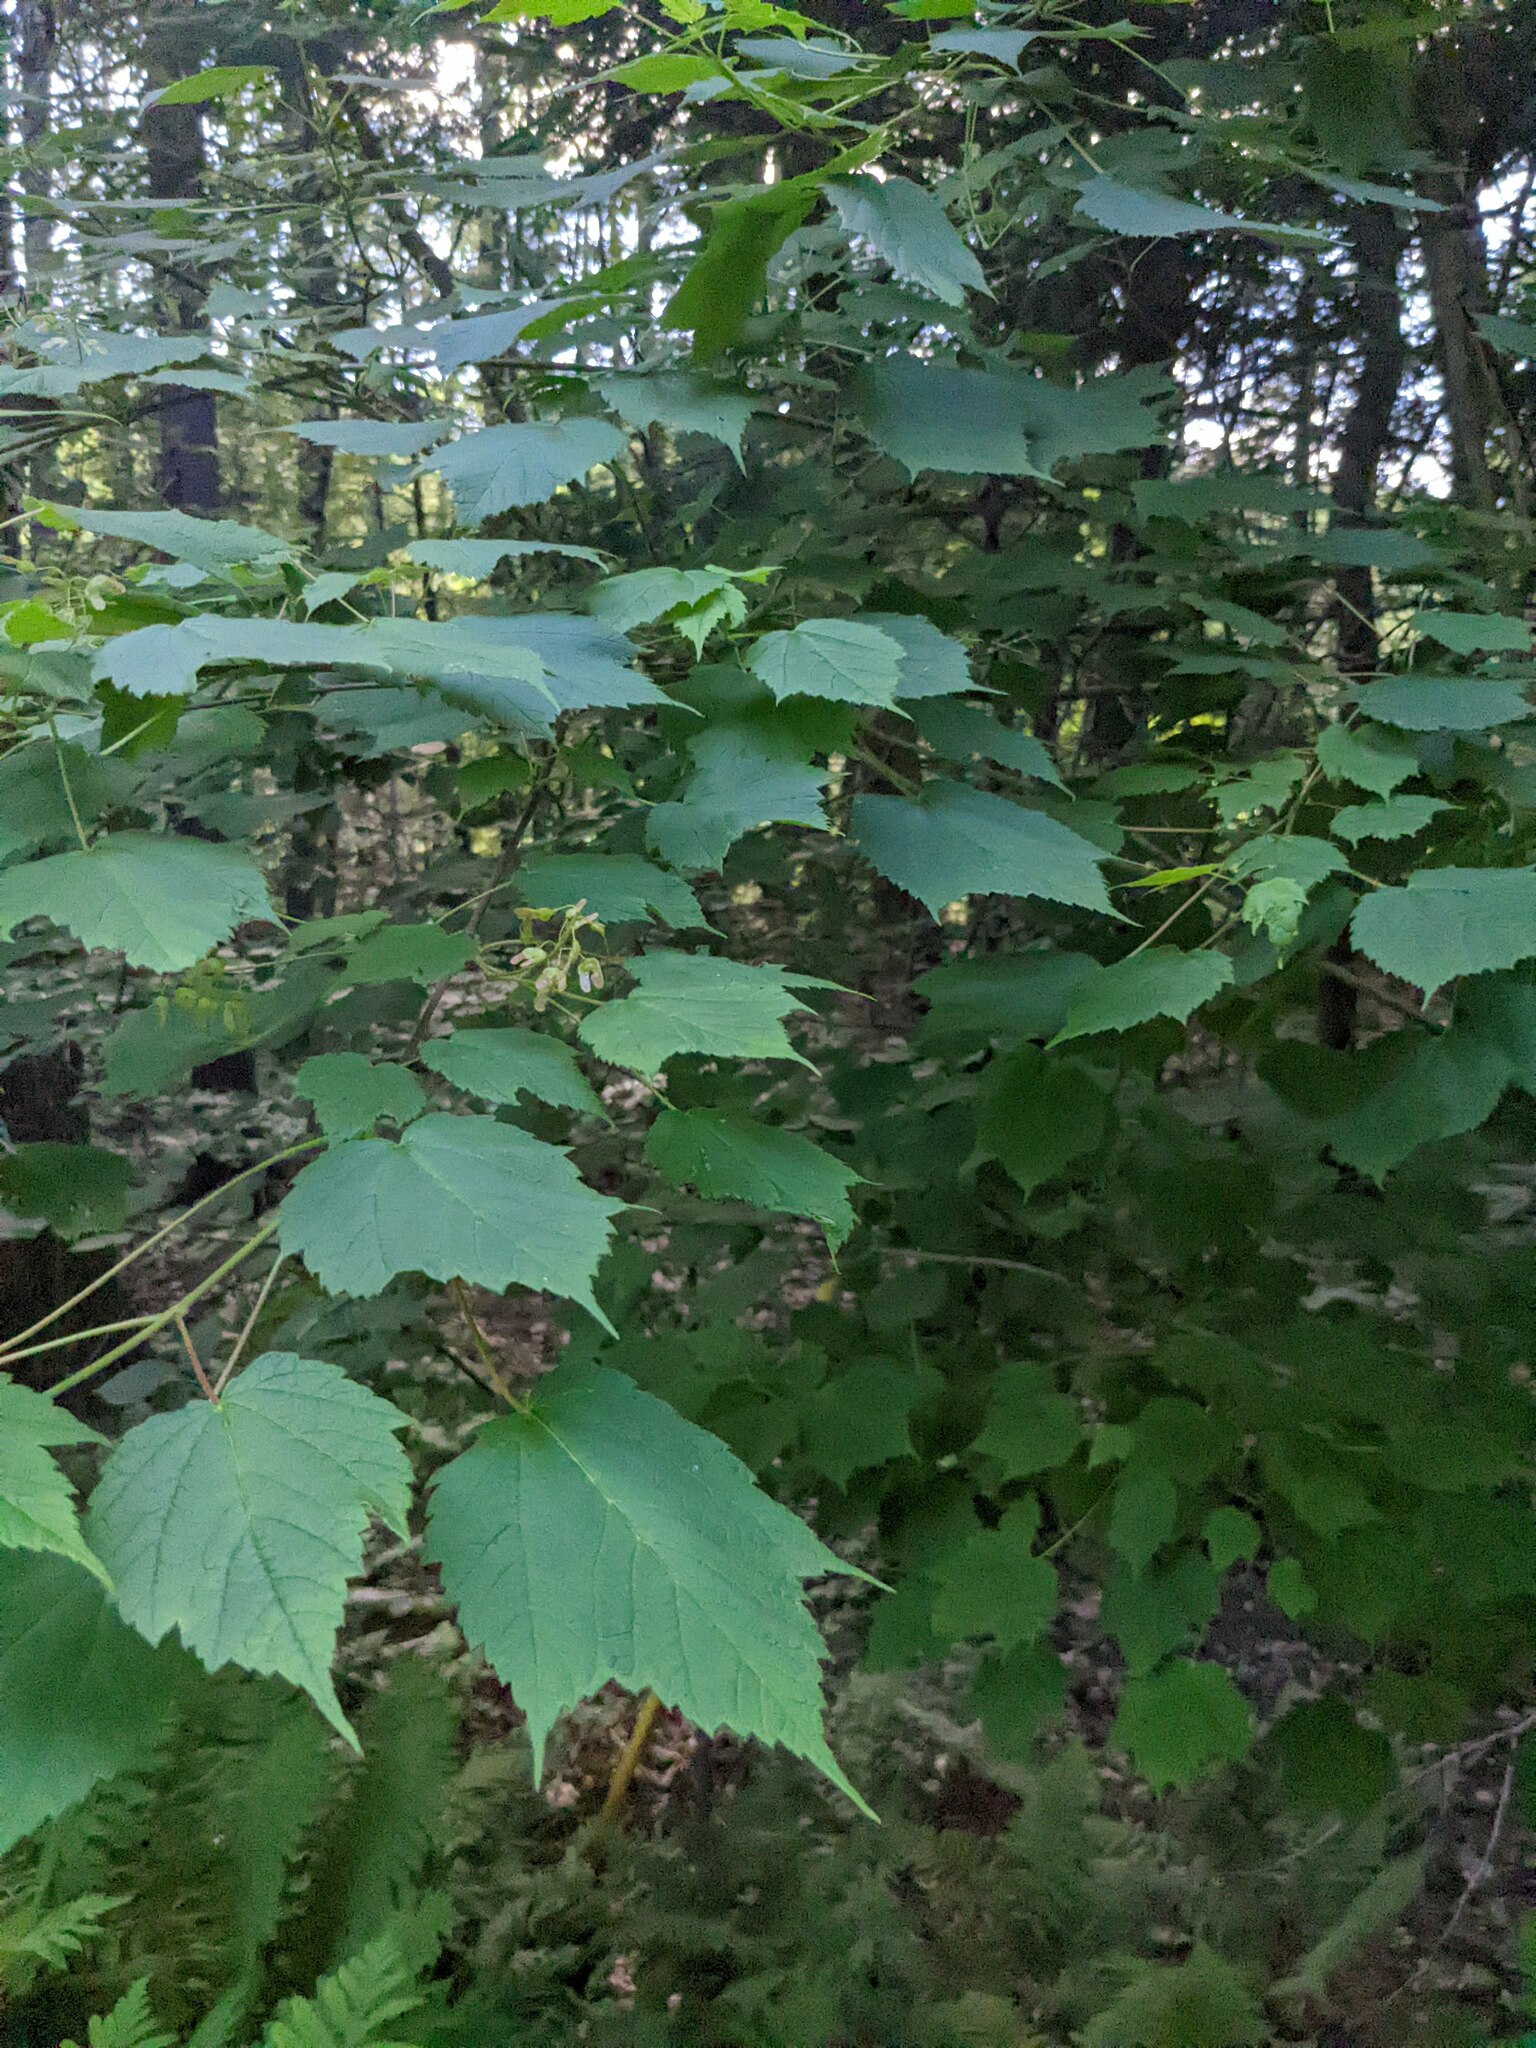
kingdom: Plantae
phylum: Tracheophyta
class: Magnoliopsida
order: Sapindales
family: Sapindaceae
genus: Acer
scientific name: Acer spicatum
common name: Mountain maple
